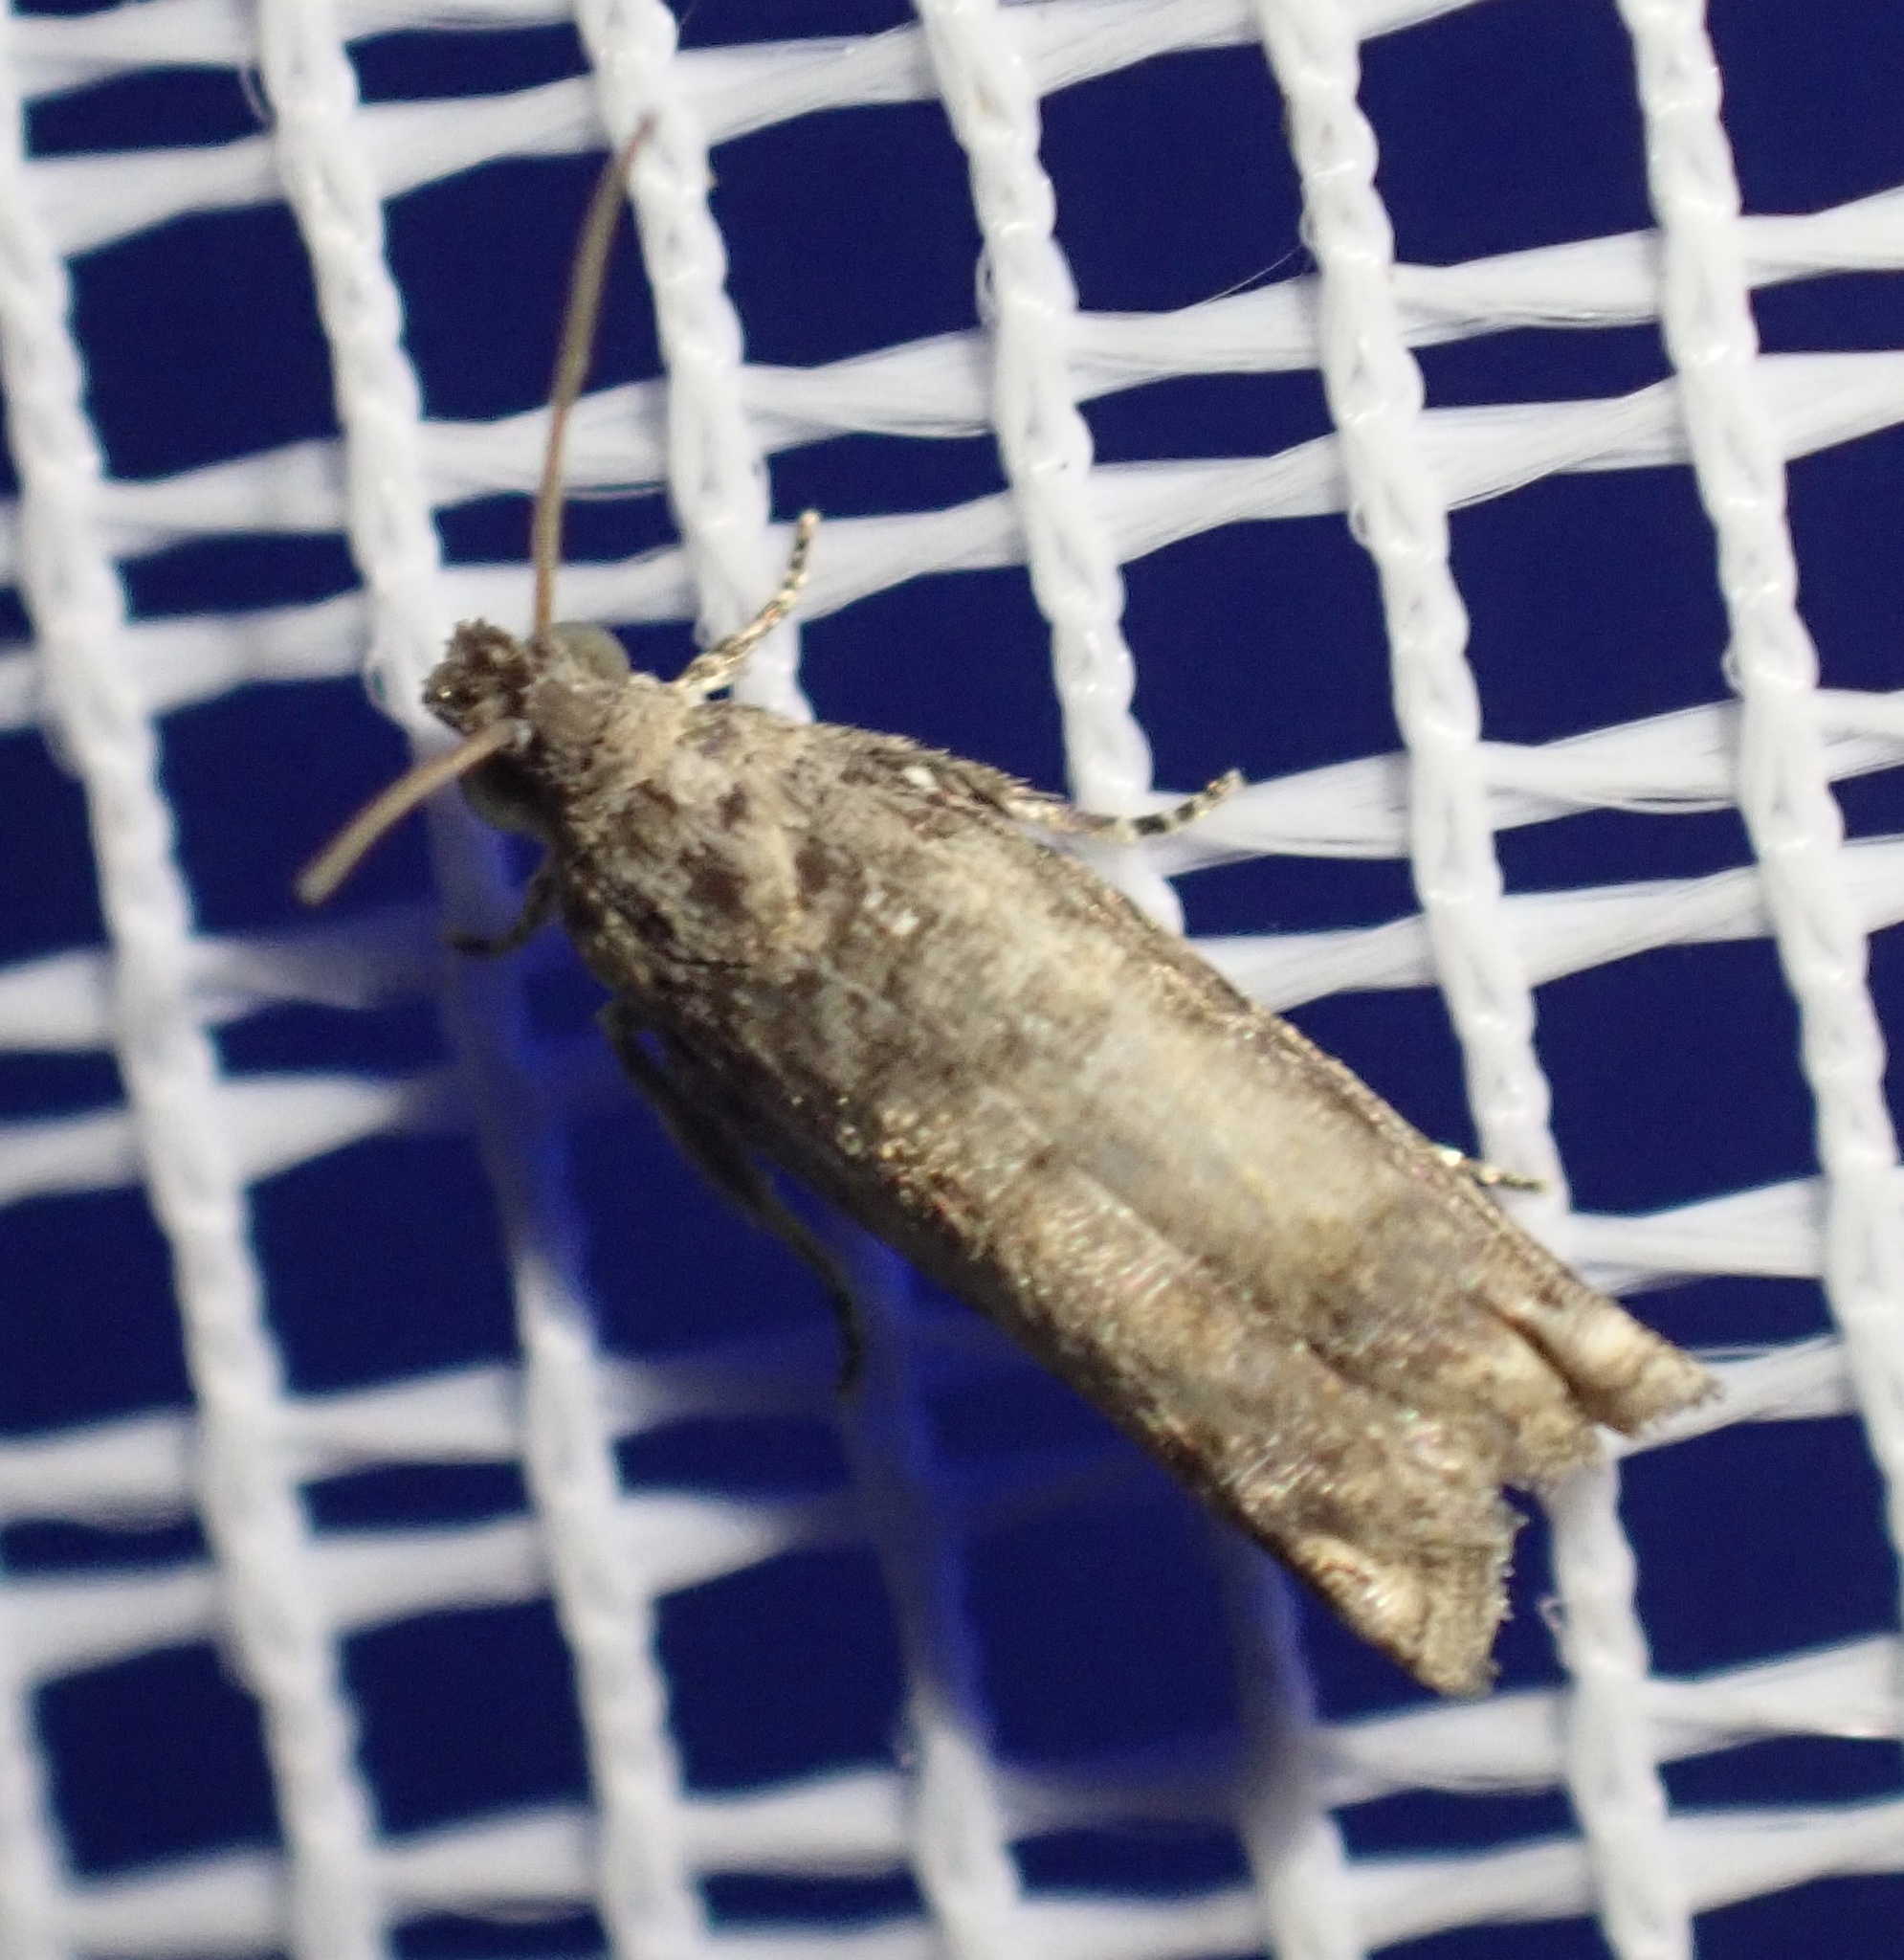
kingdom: Animalia
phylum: Arthropoda
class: Insecta
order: Lepidoptera
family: Tortricidae
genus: Coniostola
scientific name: Coniostola stereoma
